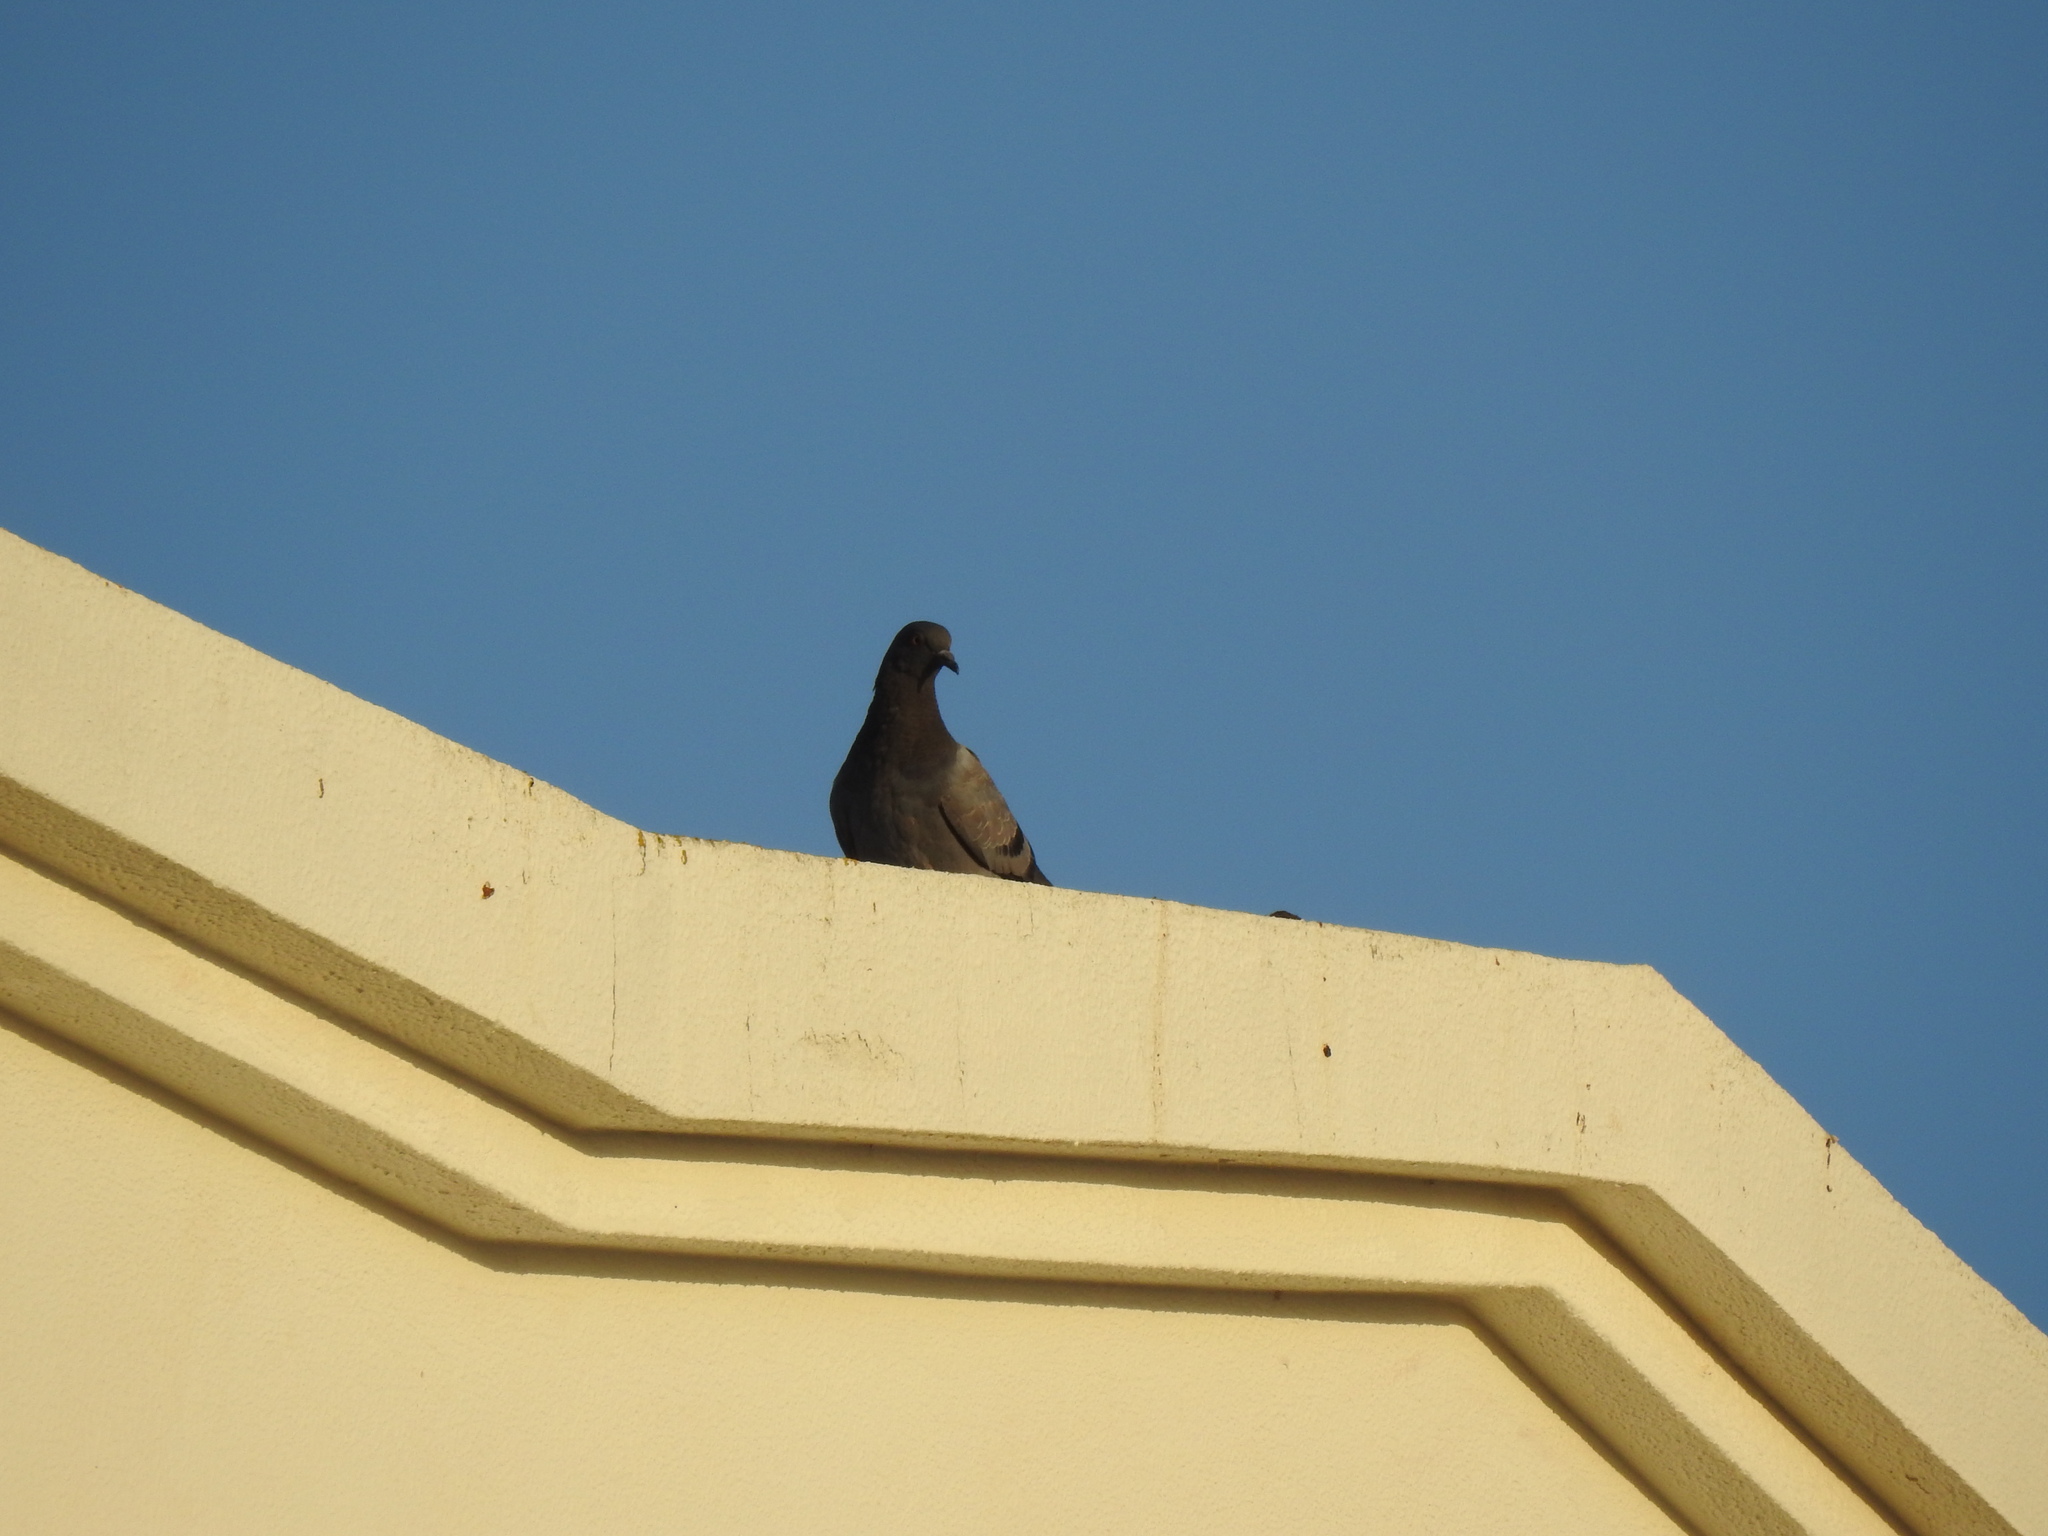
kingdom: Animalia
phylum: Chordata
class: Aves
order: Columbiformes
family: Columbidae
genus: Columba
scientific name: Columba livia
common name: Rock pigeon
